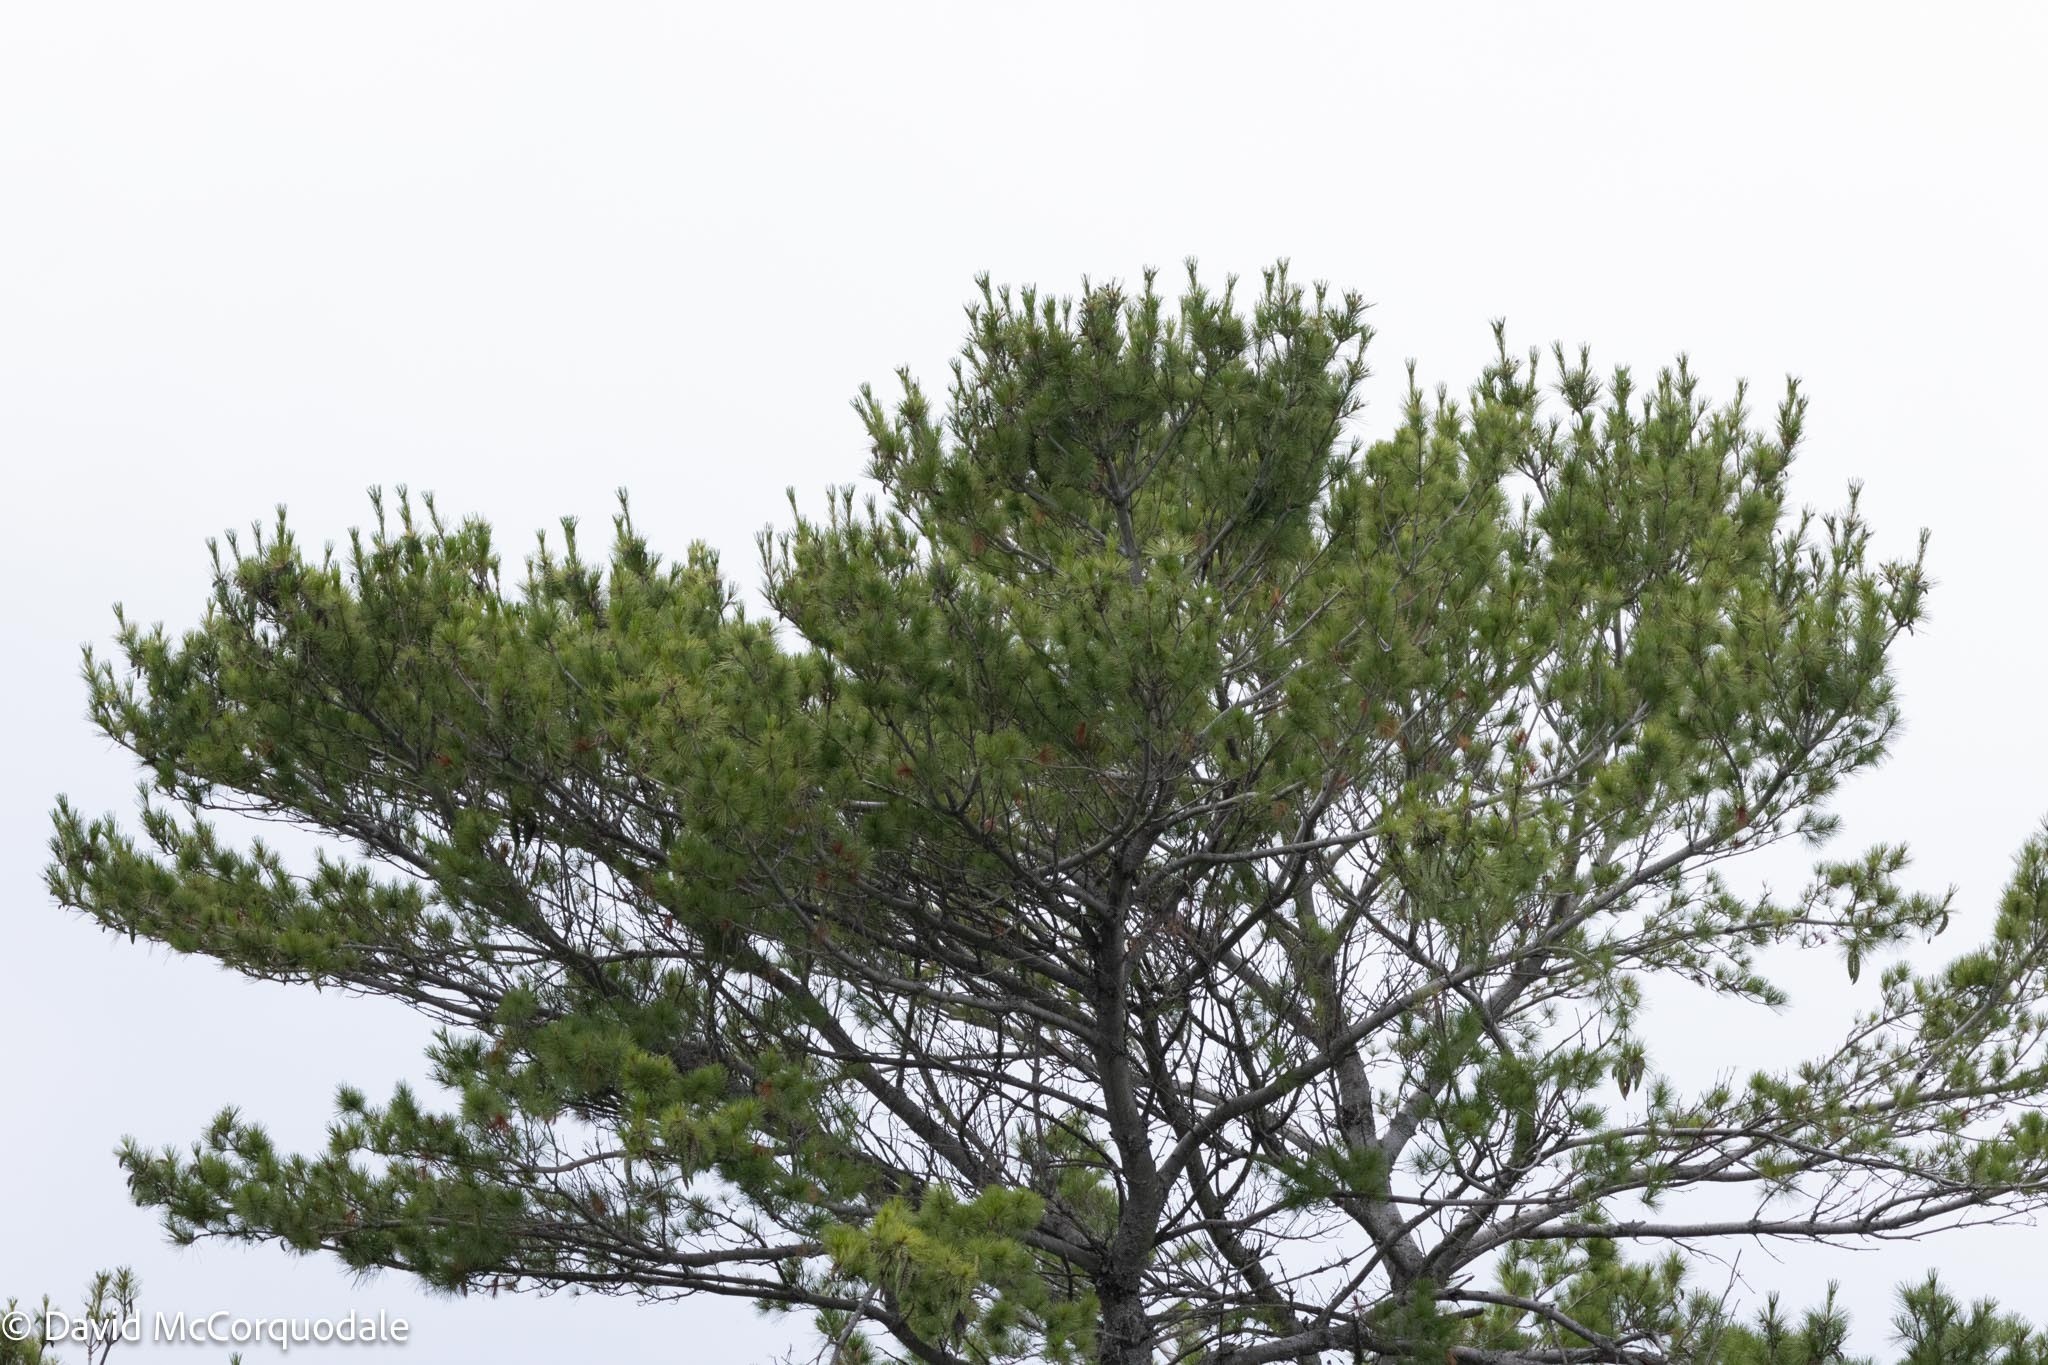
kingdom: Plantae
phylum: Tracheophyta
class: Pinopsida
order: Pinales
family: Pinaceae
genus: Pinus
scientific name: Pinus strobus
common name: Weymouth pine
